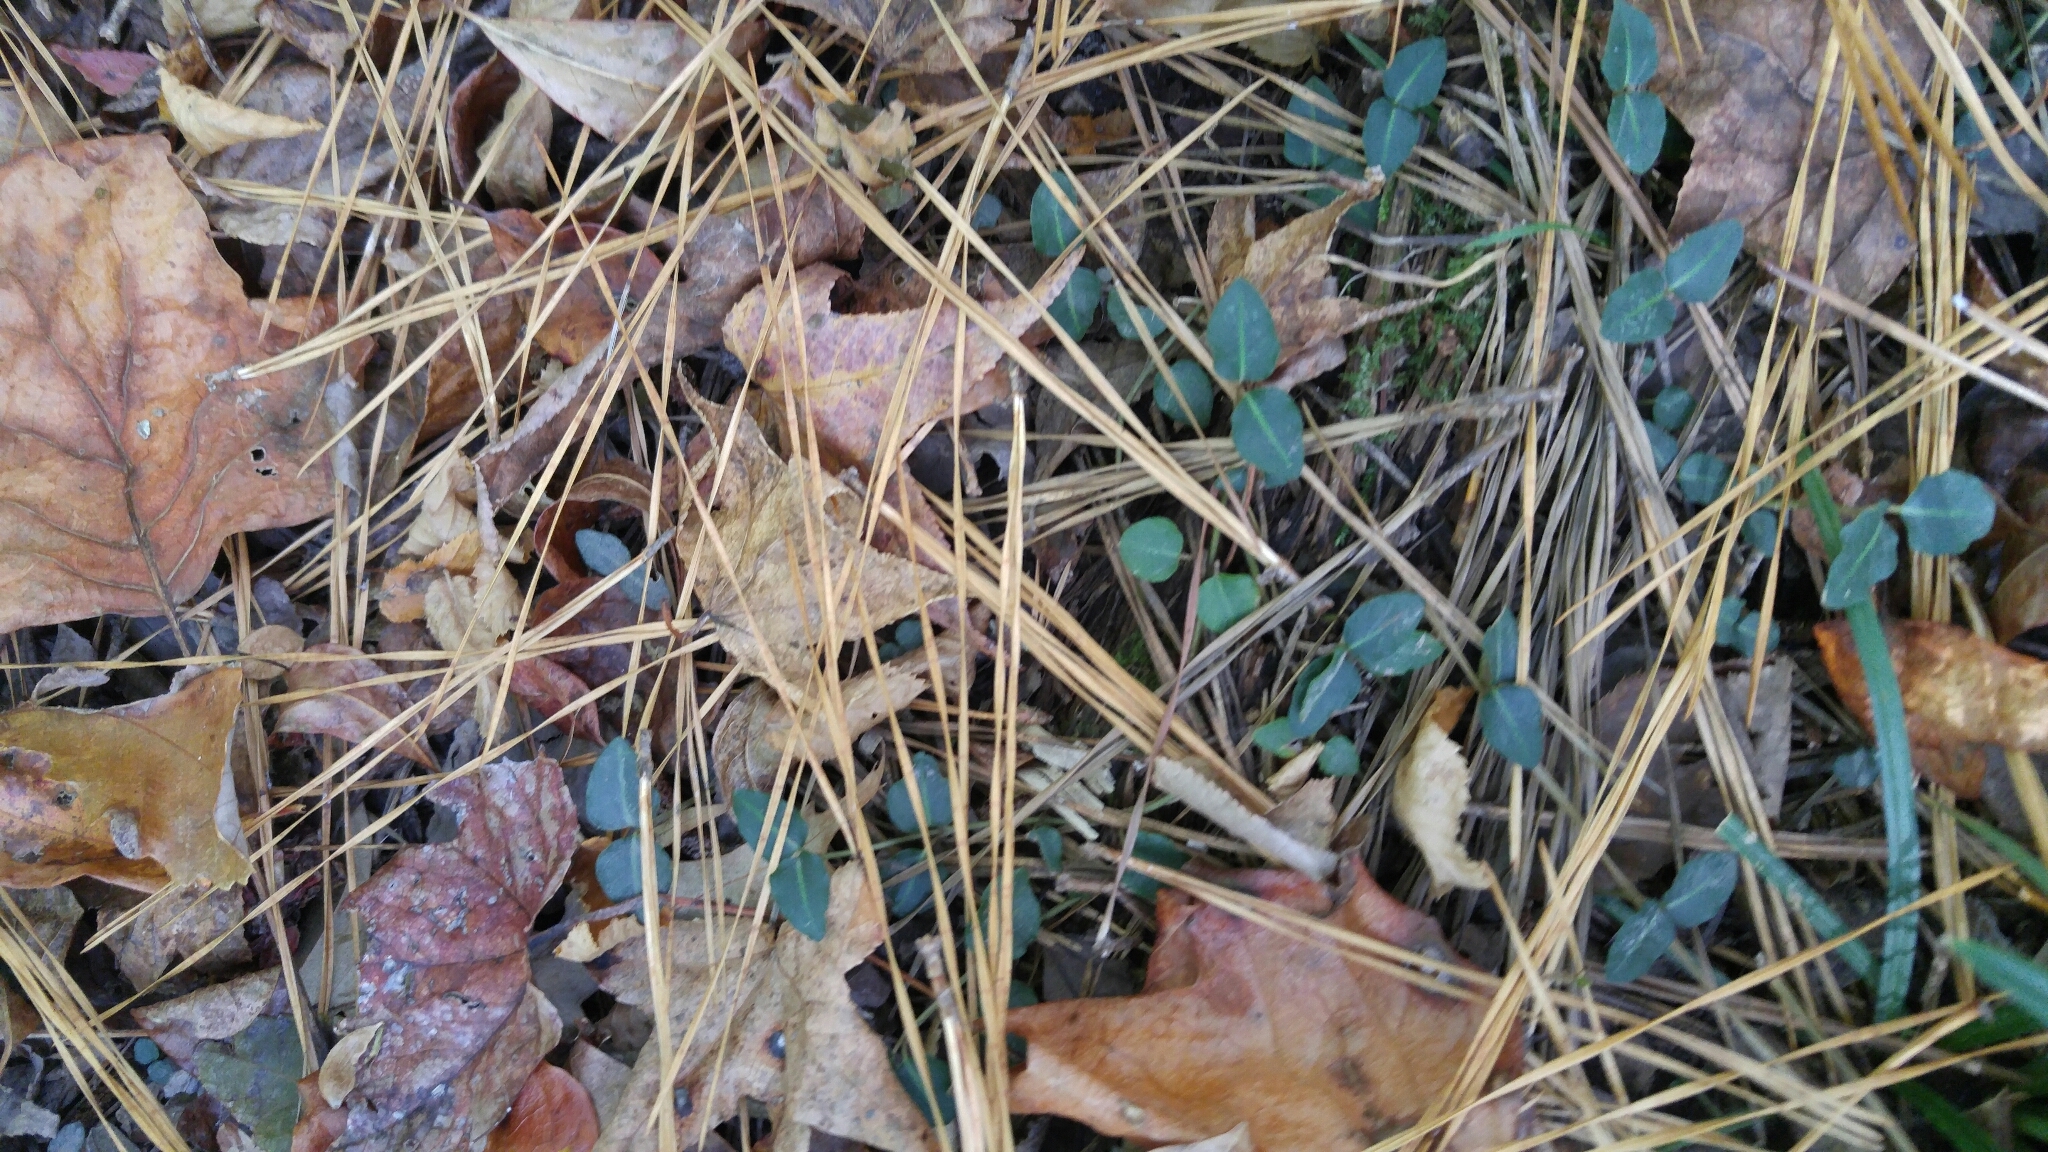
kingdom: Plantae
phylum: Tracheophyta
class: Magnoliopsida
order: Gentianales
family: Rubiaceae
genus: Mitchella
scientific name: Mitchella repens
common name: Partridge-berry
